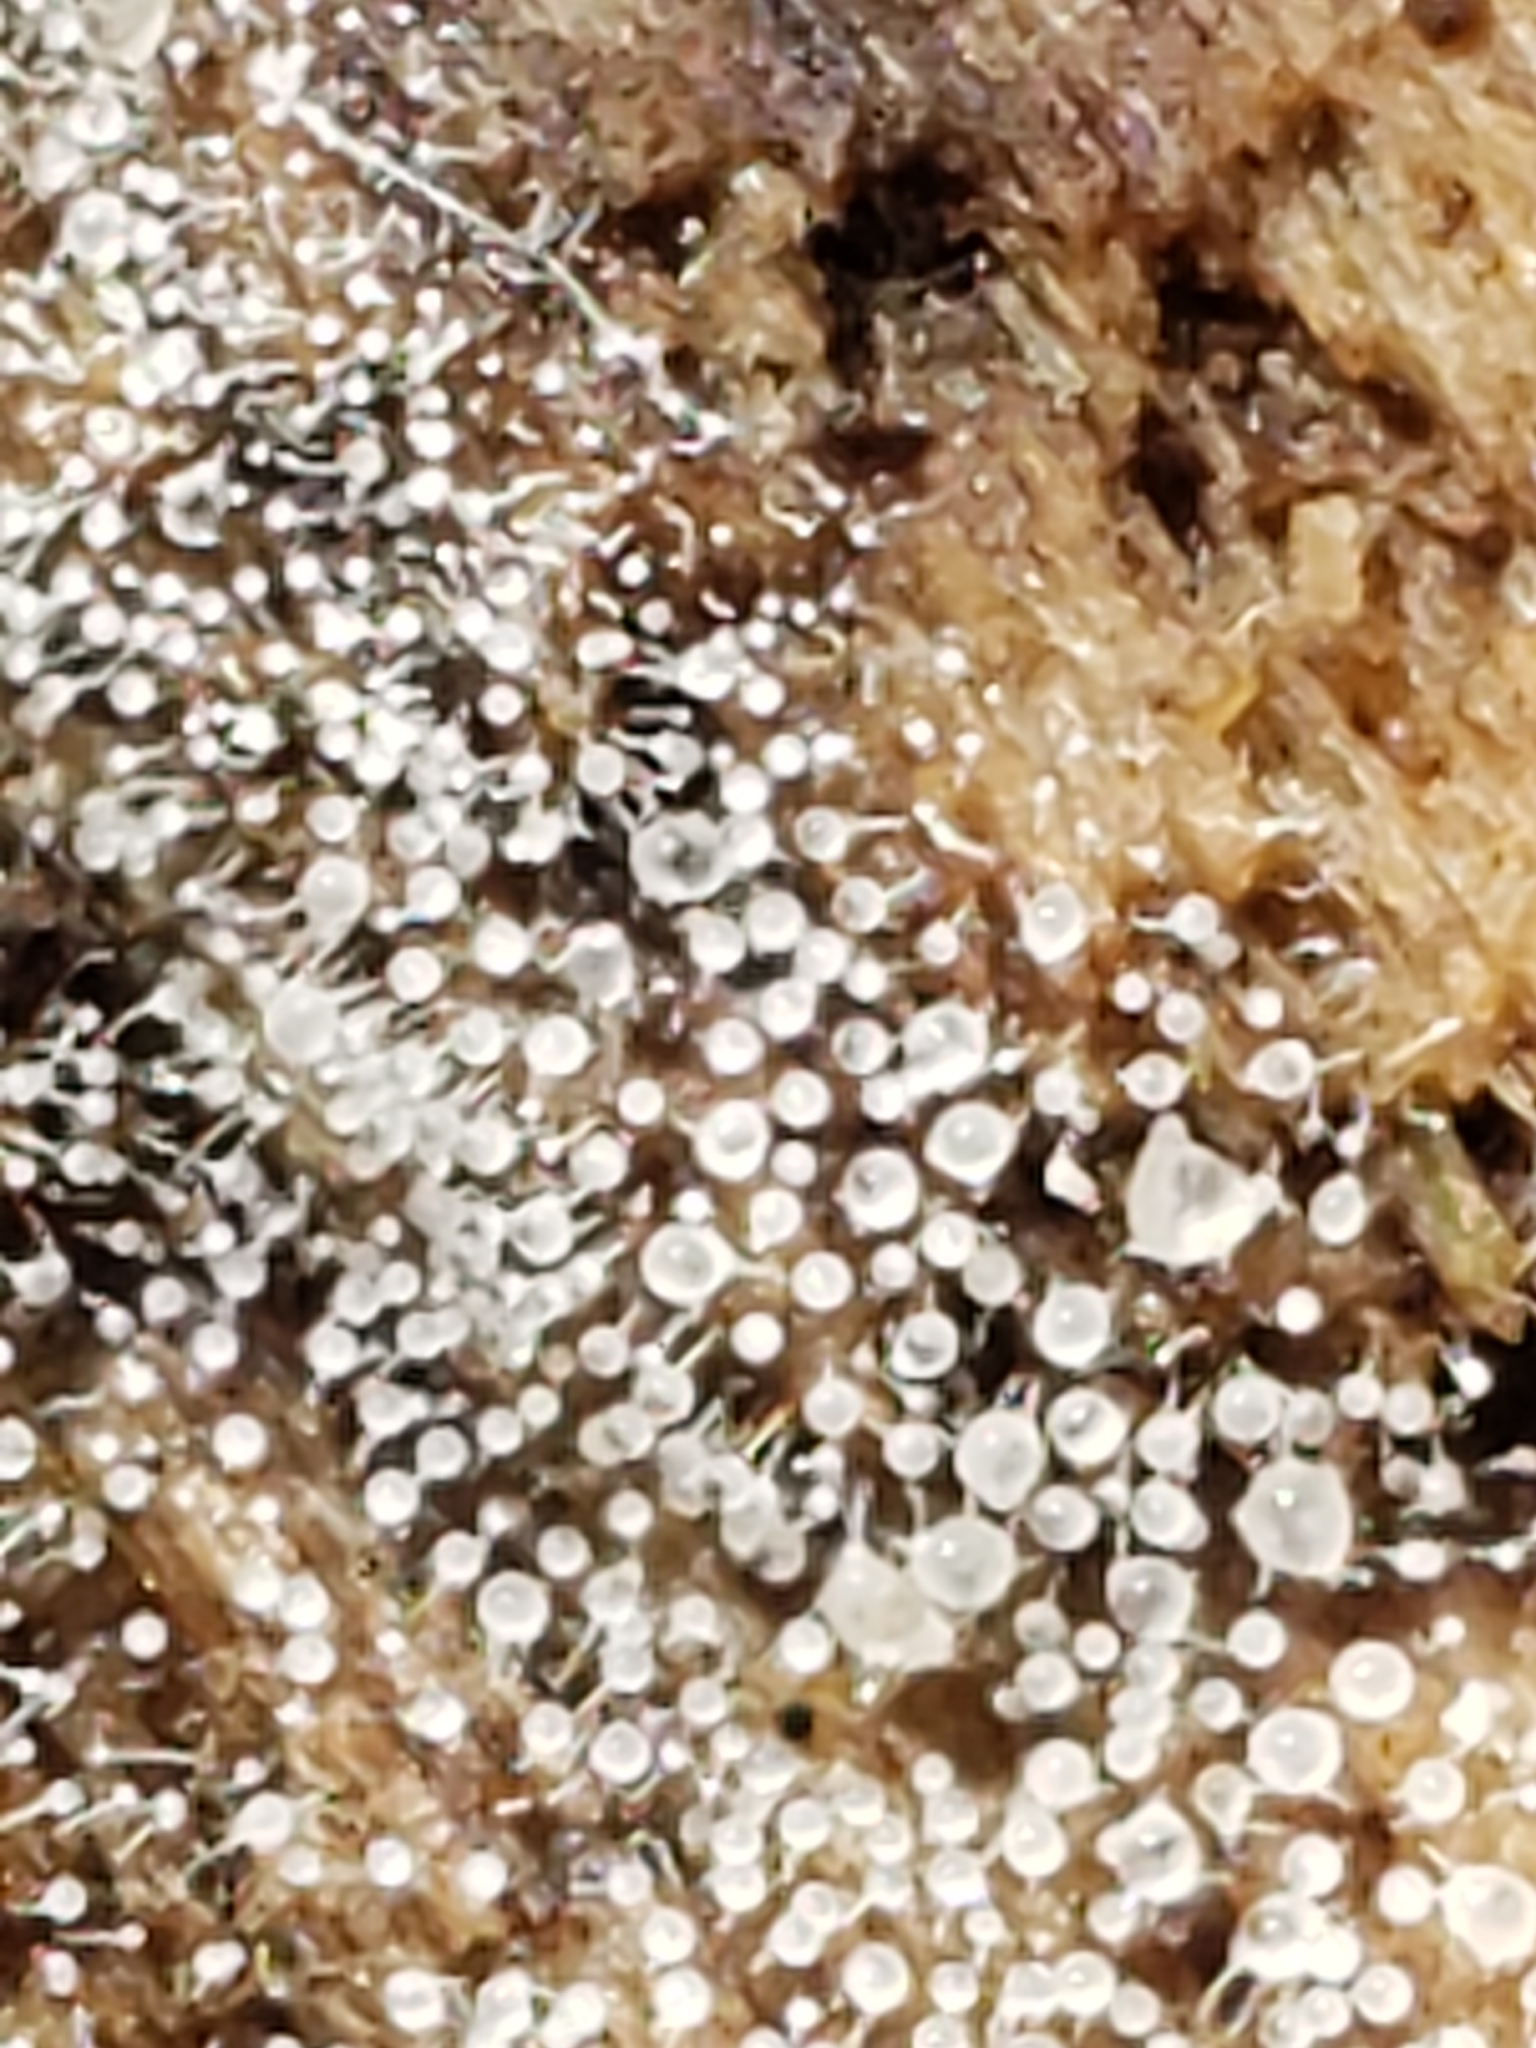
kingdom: Fungi
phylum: Ascomycota
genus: Gloiosphaera
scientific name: Gloiosphaera
